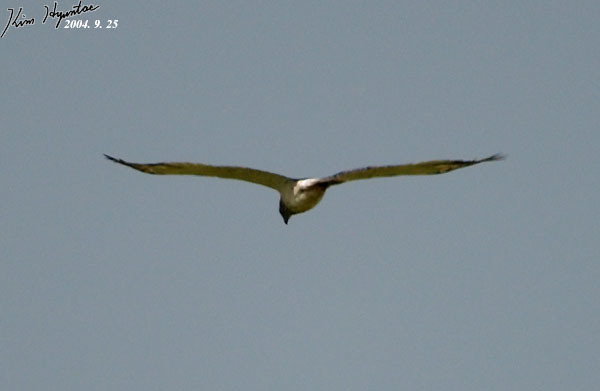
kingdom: Animalia
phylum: Chordata
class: Aves
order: Accipitriformes
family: Accipitridae
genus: Circus
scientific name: Circus spilonotus
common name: Eastern marsh-harrier
